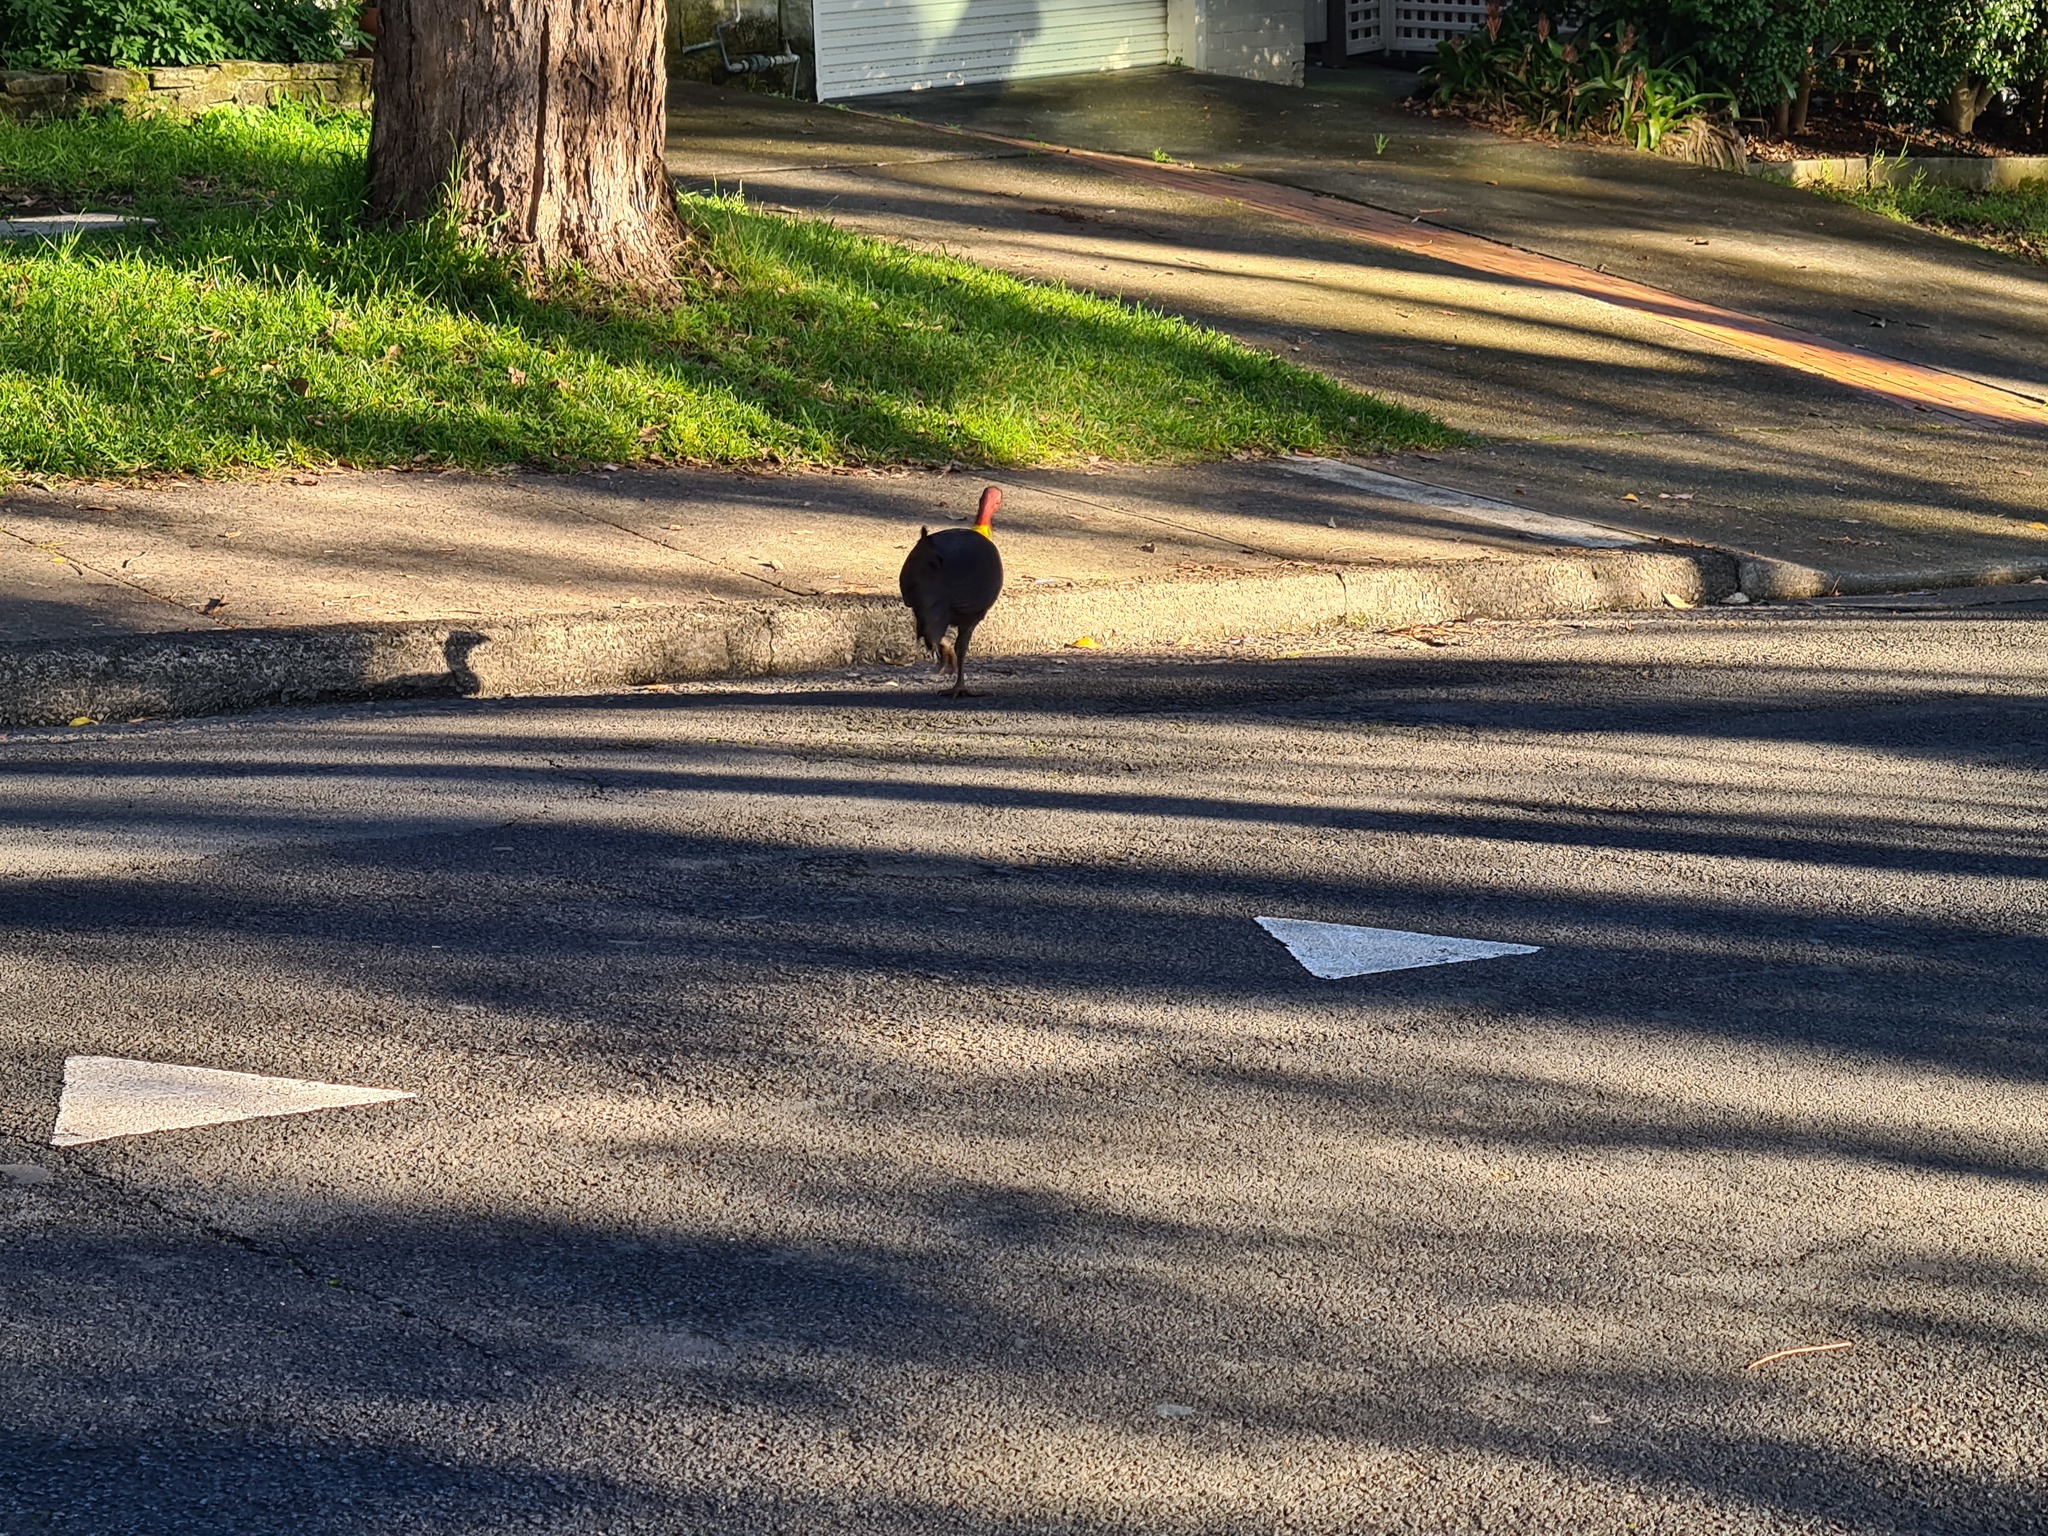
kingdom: Animalia
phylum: Chordata
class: Aves
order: Galliformes
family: Megapodiidae
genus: Alectura
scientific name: Alectura lathami
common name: Australian brushturkey
